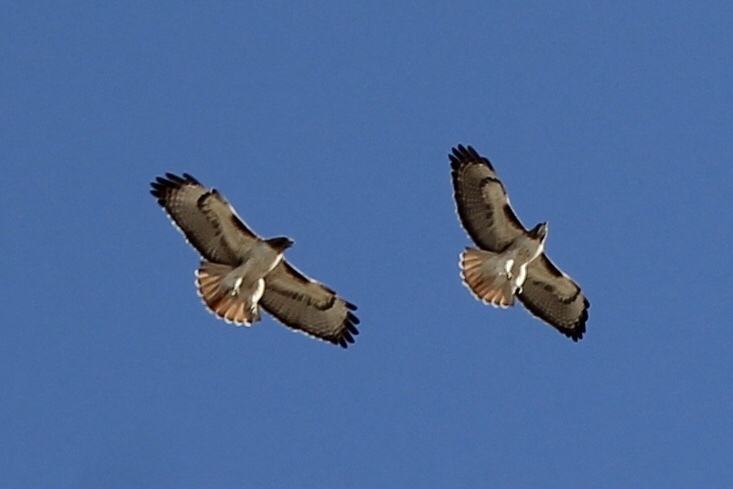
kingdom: Animalia
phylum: Chordata
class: Aves
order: Accipitriformes
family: Accipitridae
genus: Buteo
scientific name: Buteo jamaicensis
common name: Red-tailed hawk
